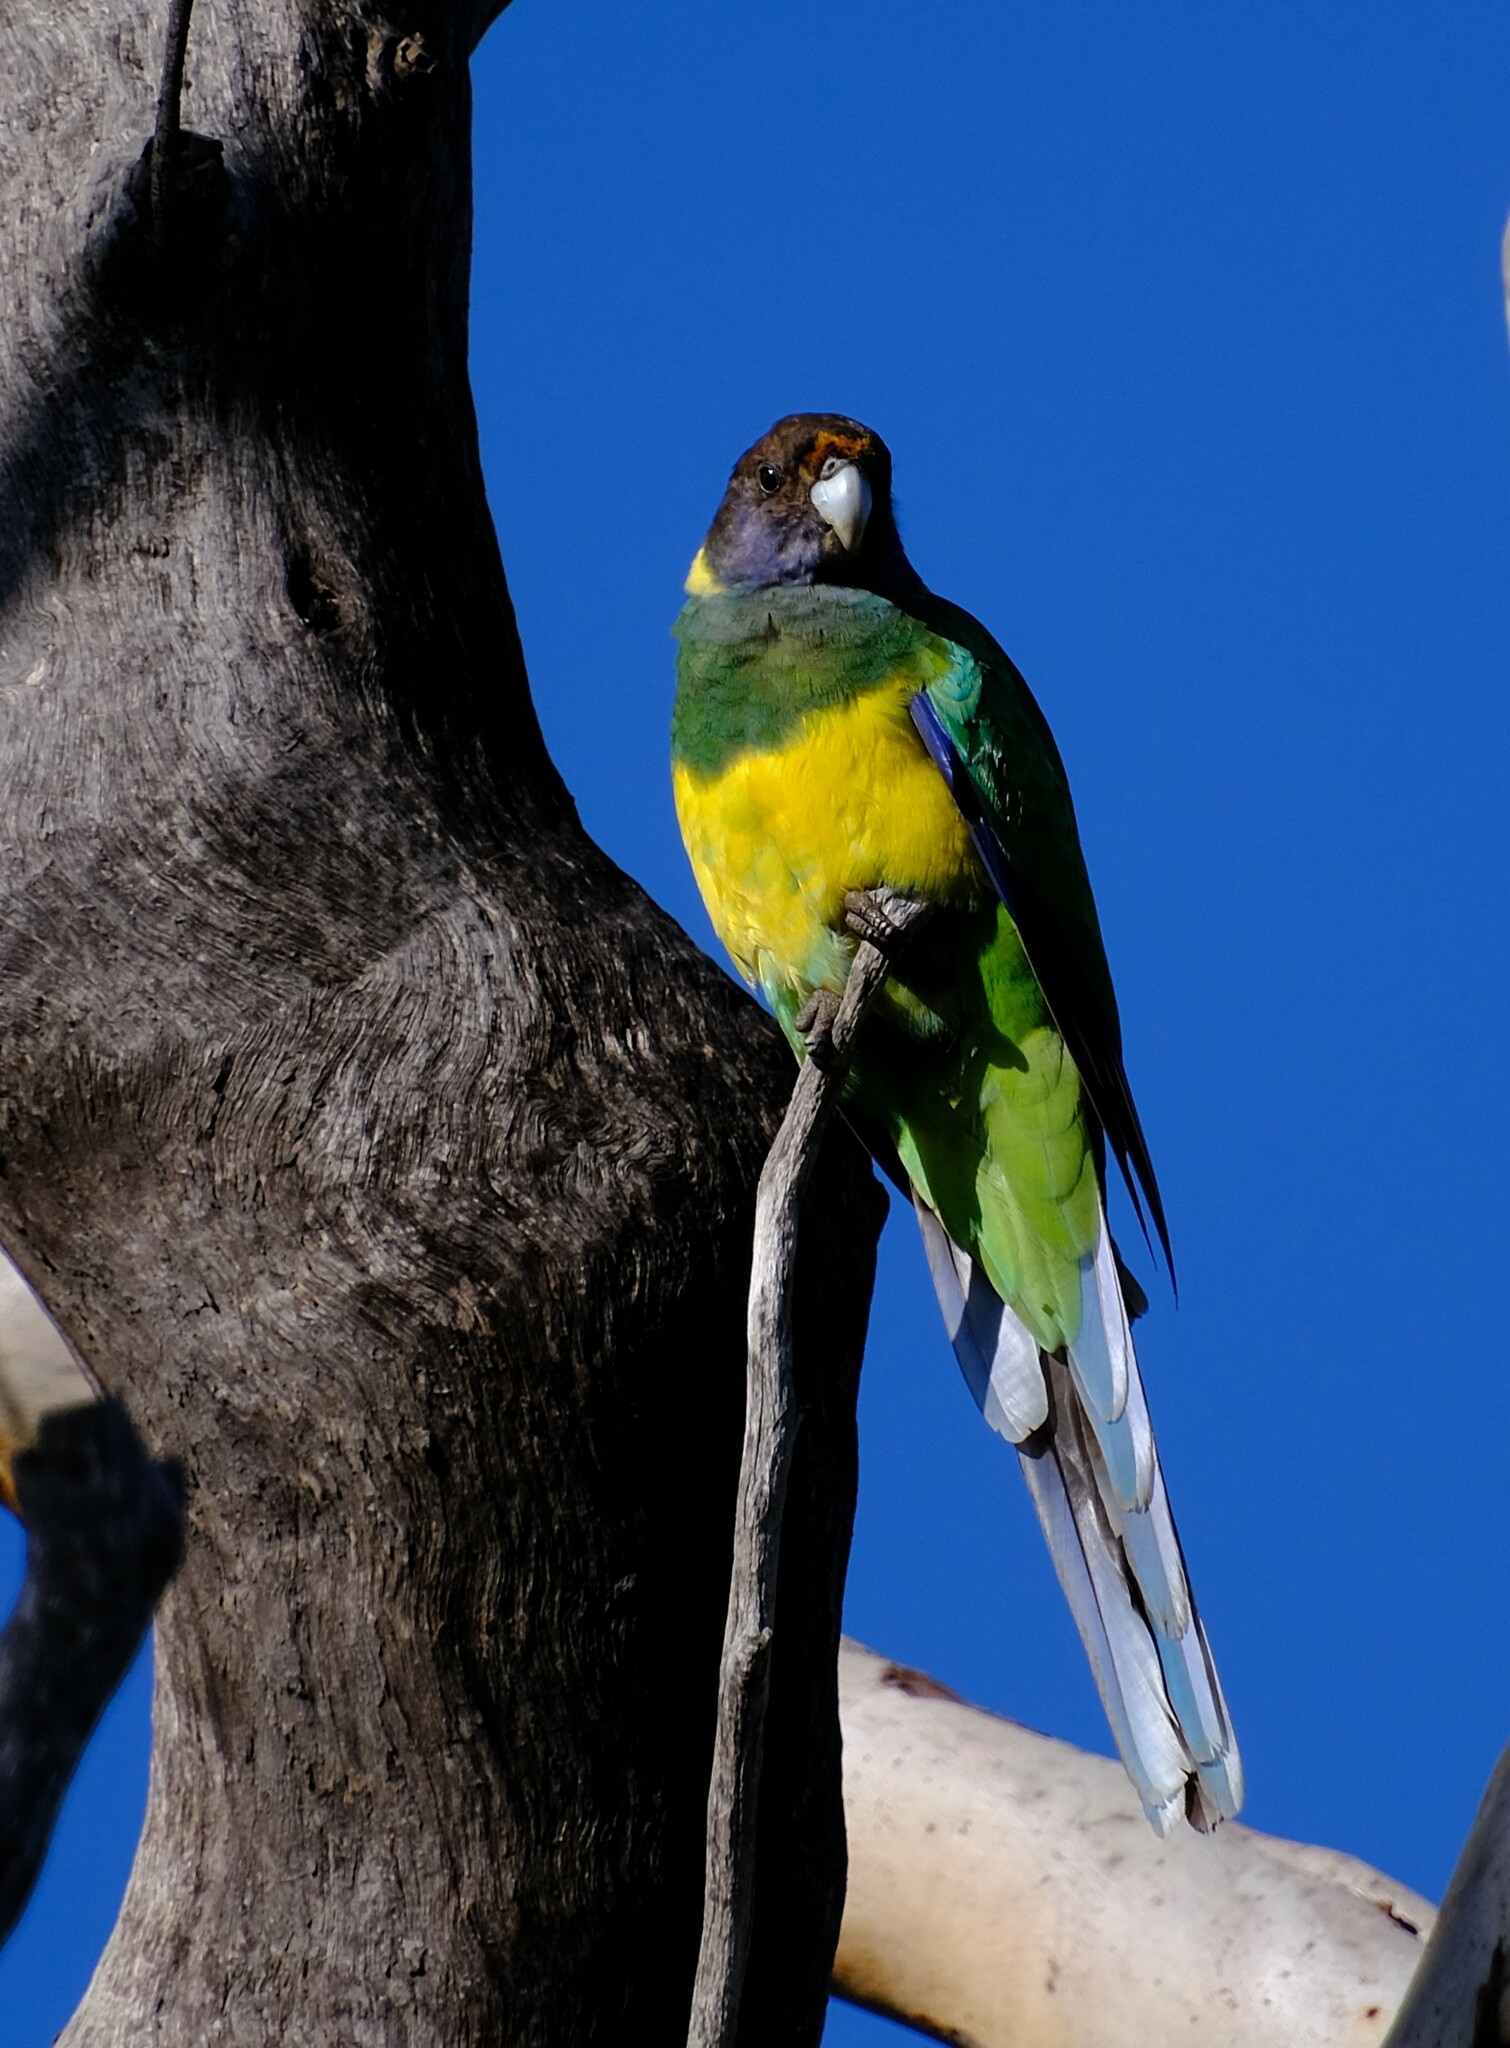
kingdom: Animalia
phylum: Chordata
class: Aves
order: Psittaciformes
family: Psittacidae
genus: Barnardius
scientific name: Barnardius zonarius
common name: Australian ringneck
